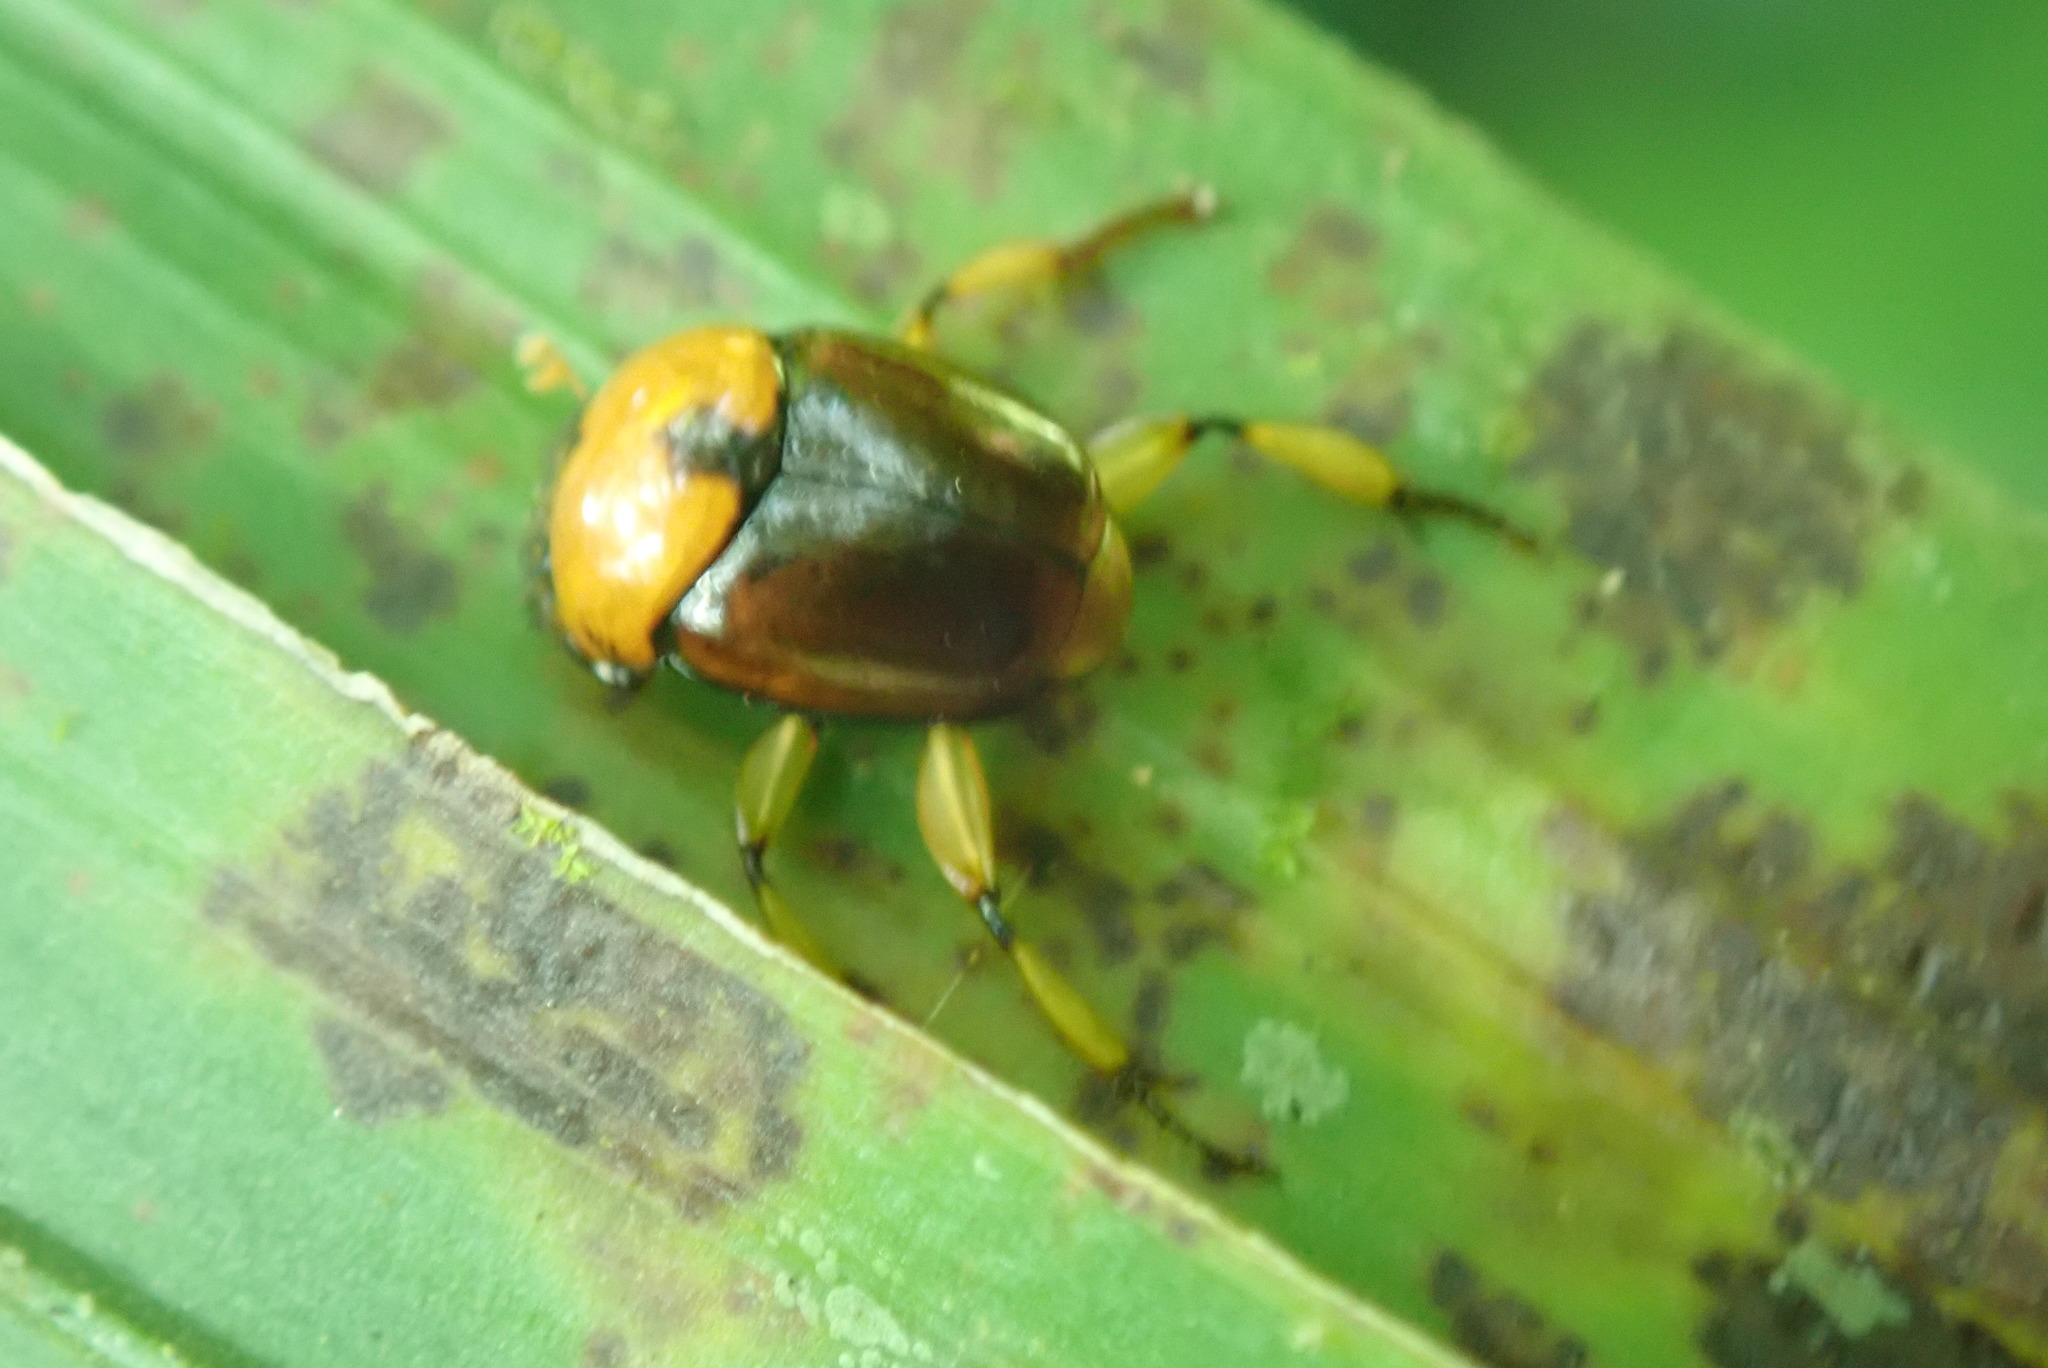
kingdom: Animalia
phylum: Arthropoda
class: Insecta
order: Coleoptera
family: Scarabaeidae
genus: Canthon
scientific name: Canthon angustatus
